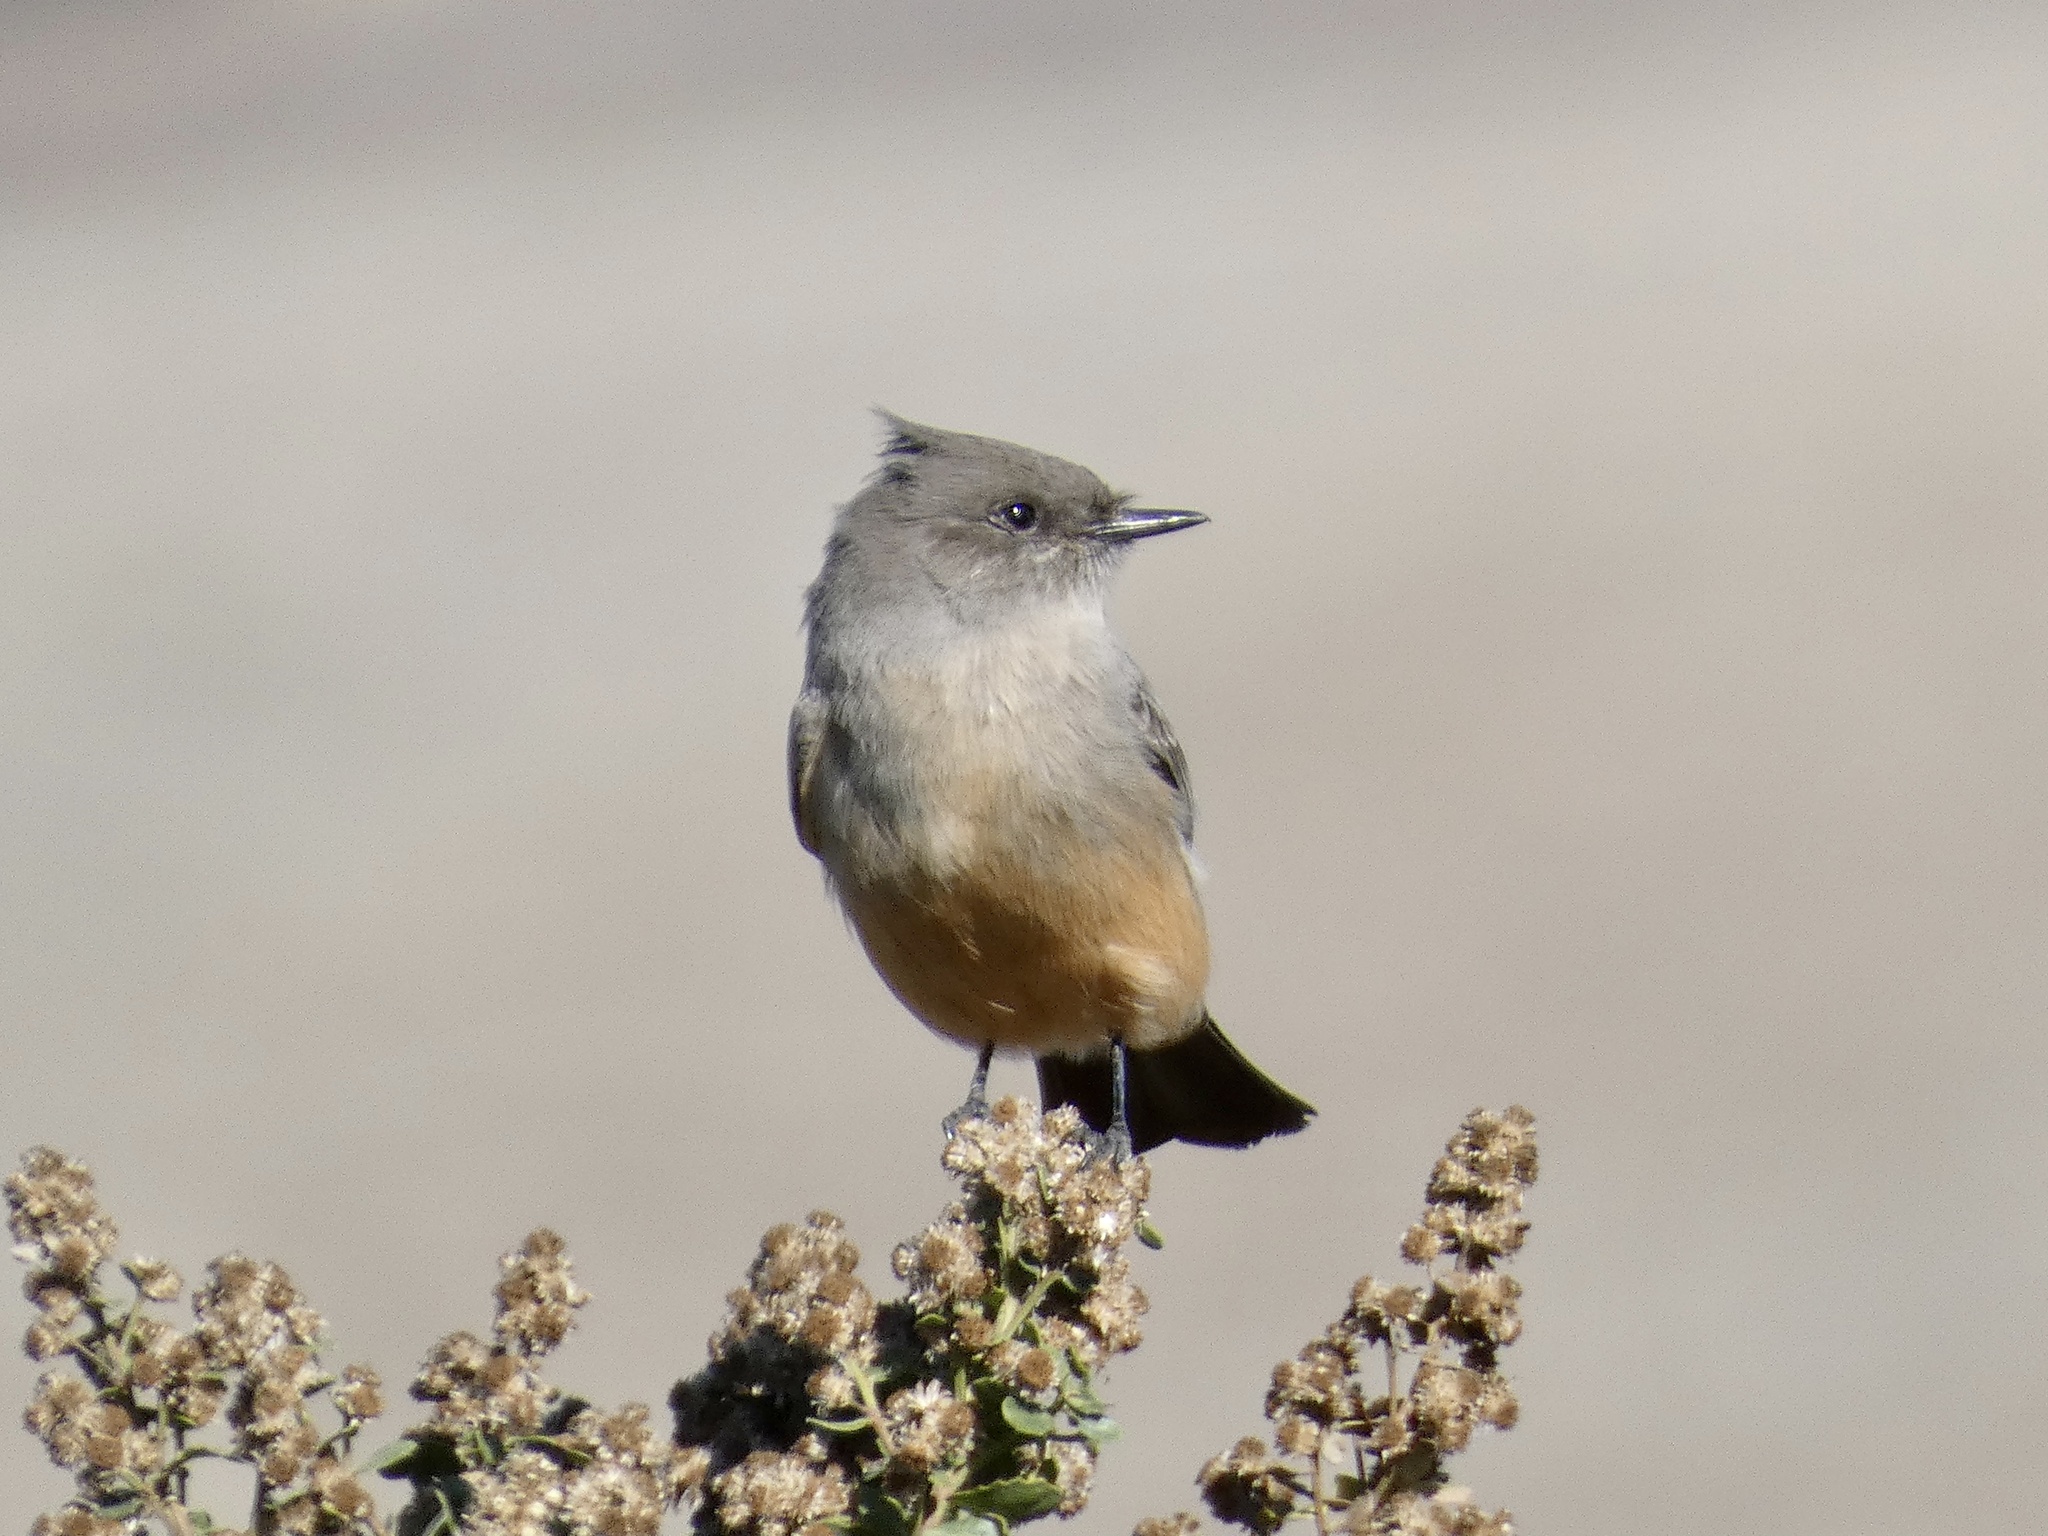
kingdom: Animalia
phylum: Chordata
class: Aves
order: Passeriformes
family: Tyrannidae
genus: Sayornis
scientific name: Sayornis saya
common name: Say's phoebe
